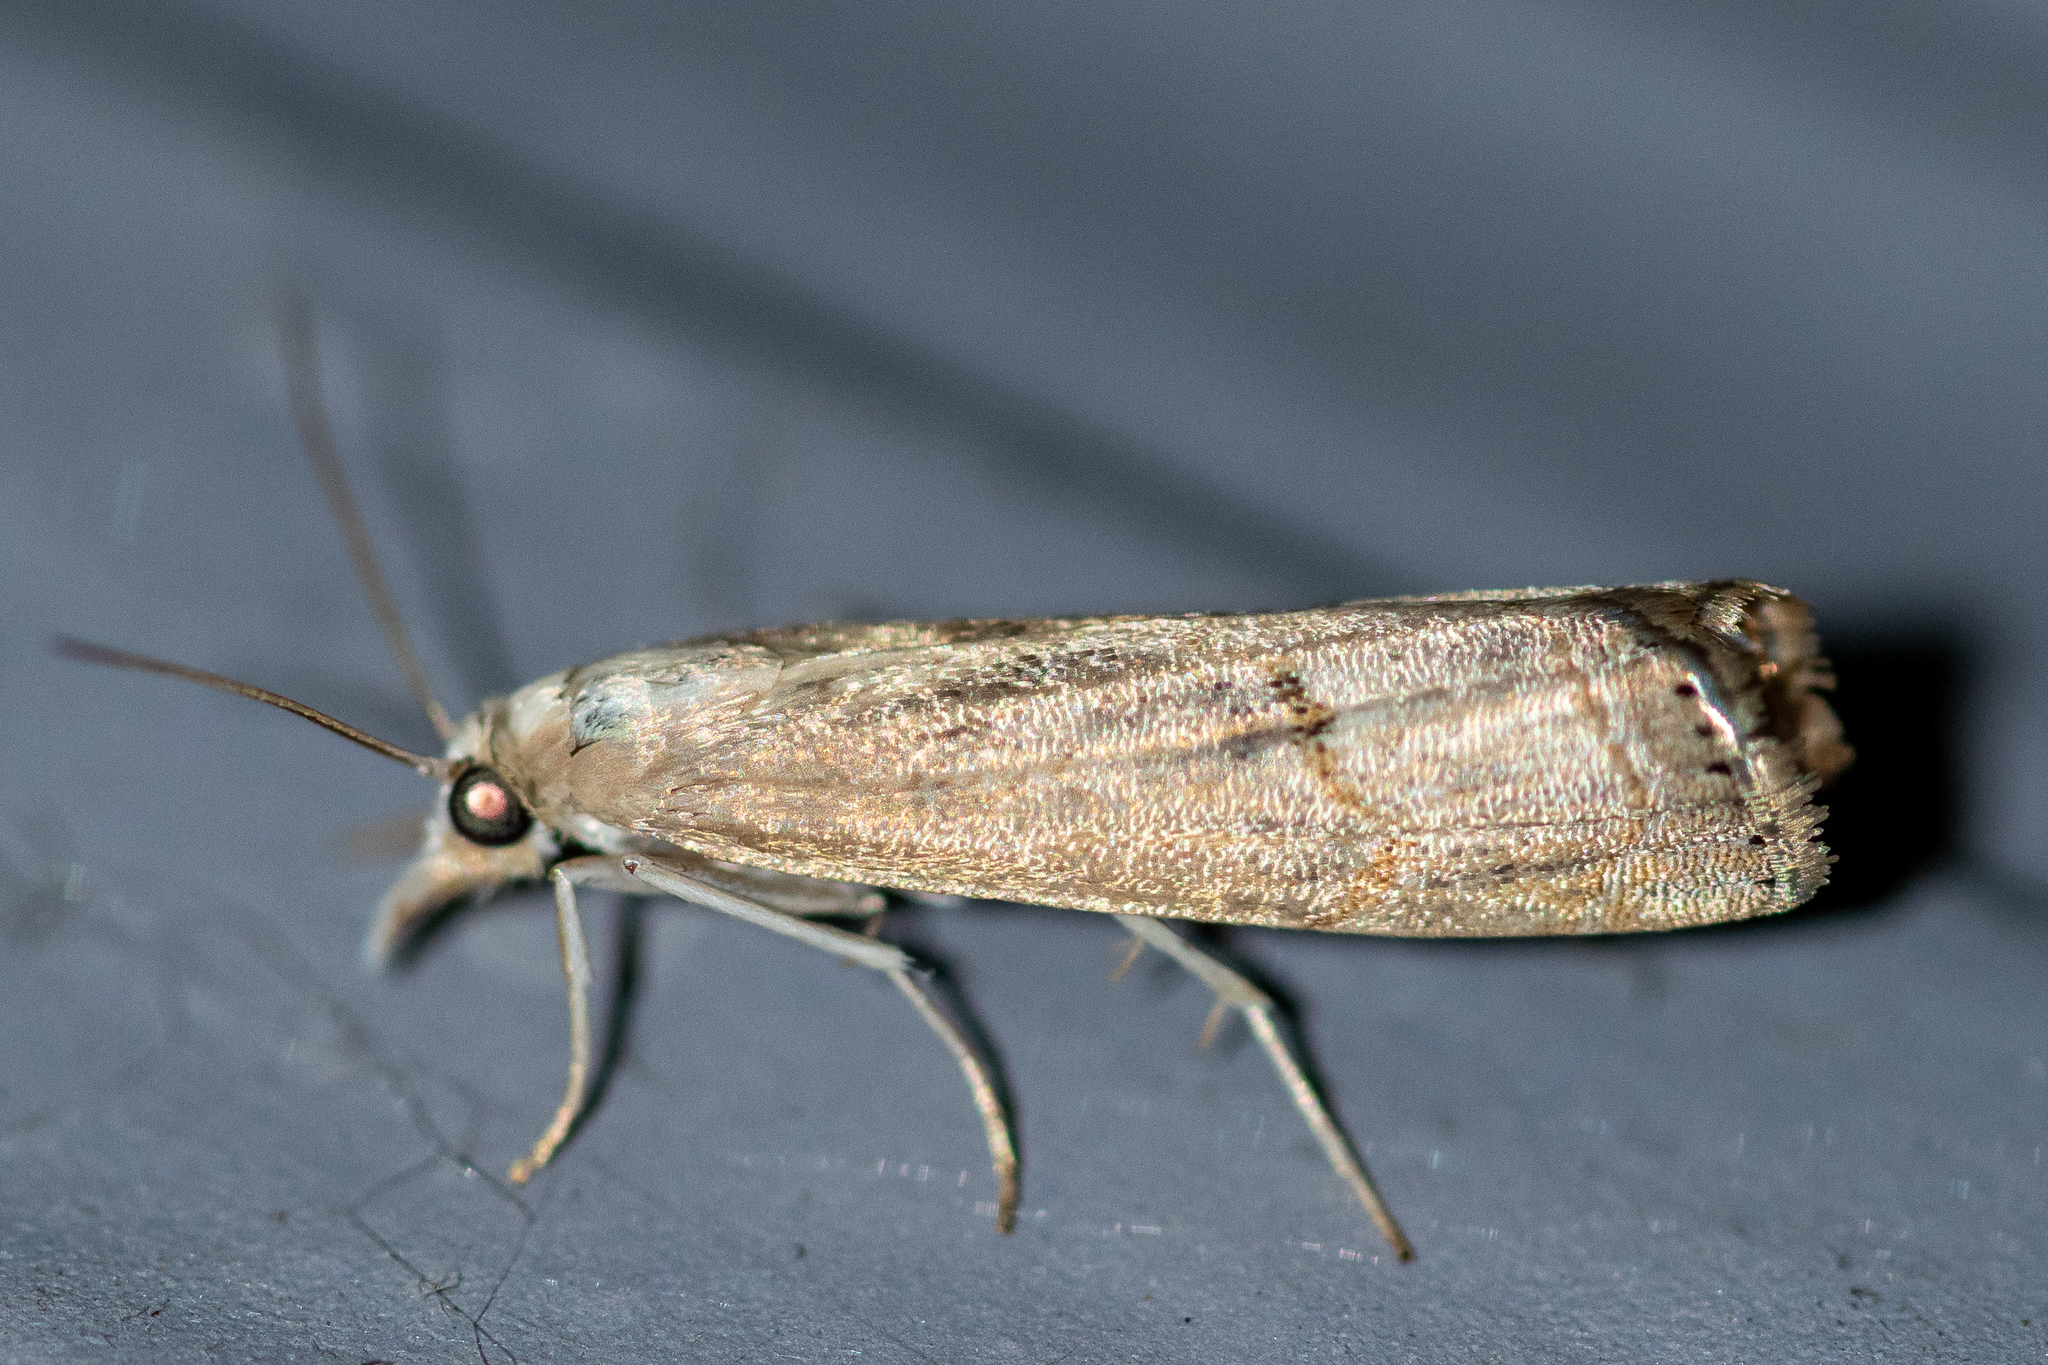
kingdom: Animalia
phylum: Arthropoda
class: Insecta
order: Lepidoptera
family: Crambidae
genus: Parapediasia
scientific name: Parapediasia teterellus
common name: Bluegrass webworm moth
